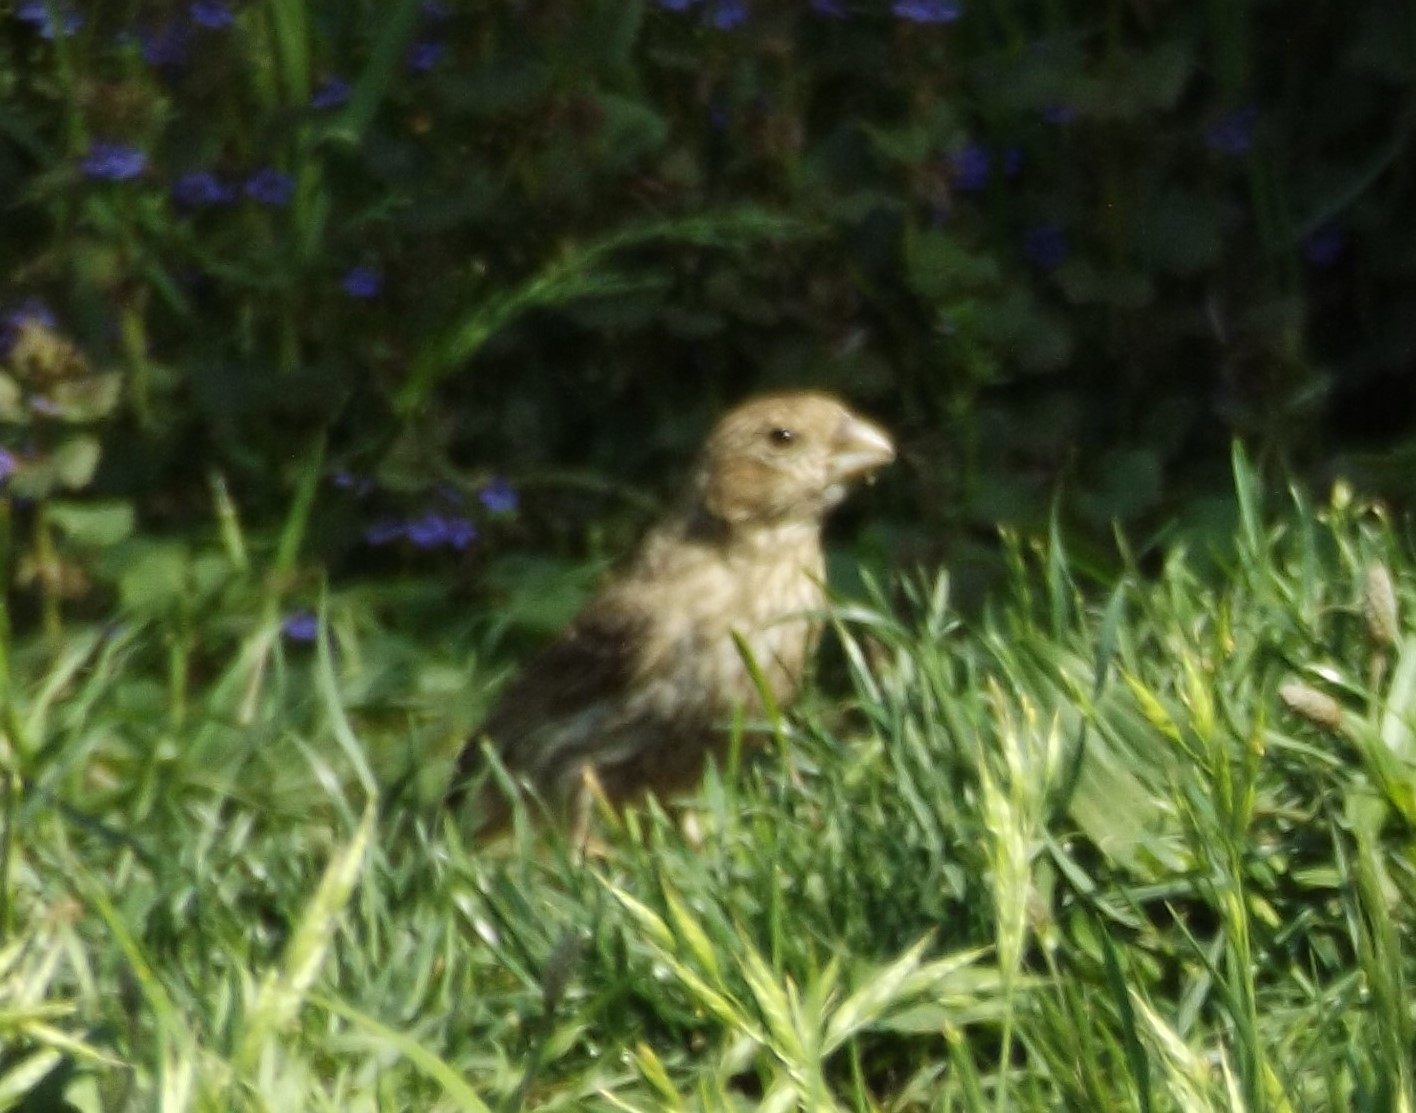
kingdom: Animalia
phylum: Chordata
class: Aves
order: Passeriformes
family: Fringillidae
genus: Haemorhous
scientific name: Haemorhous mexicanus
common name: House finch
